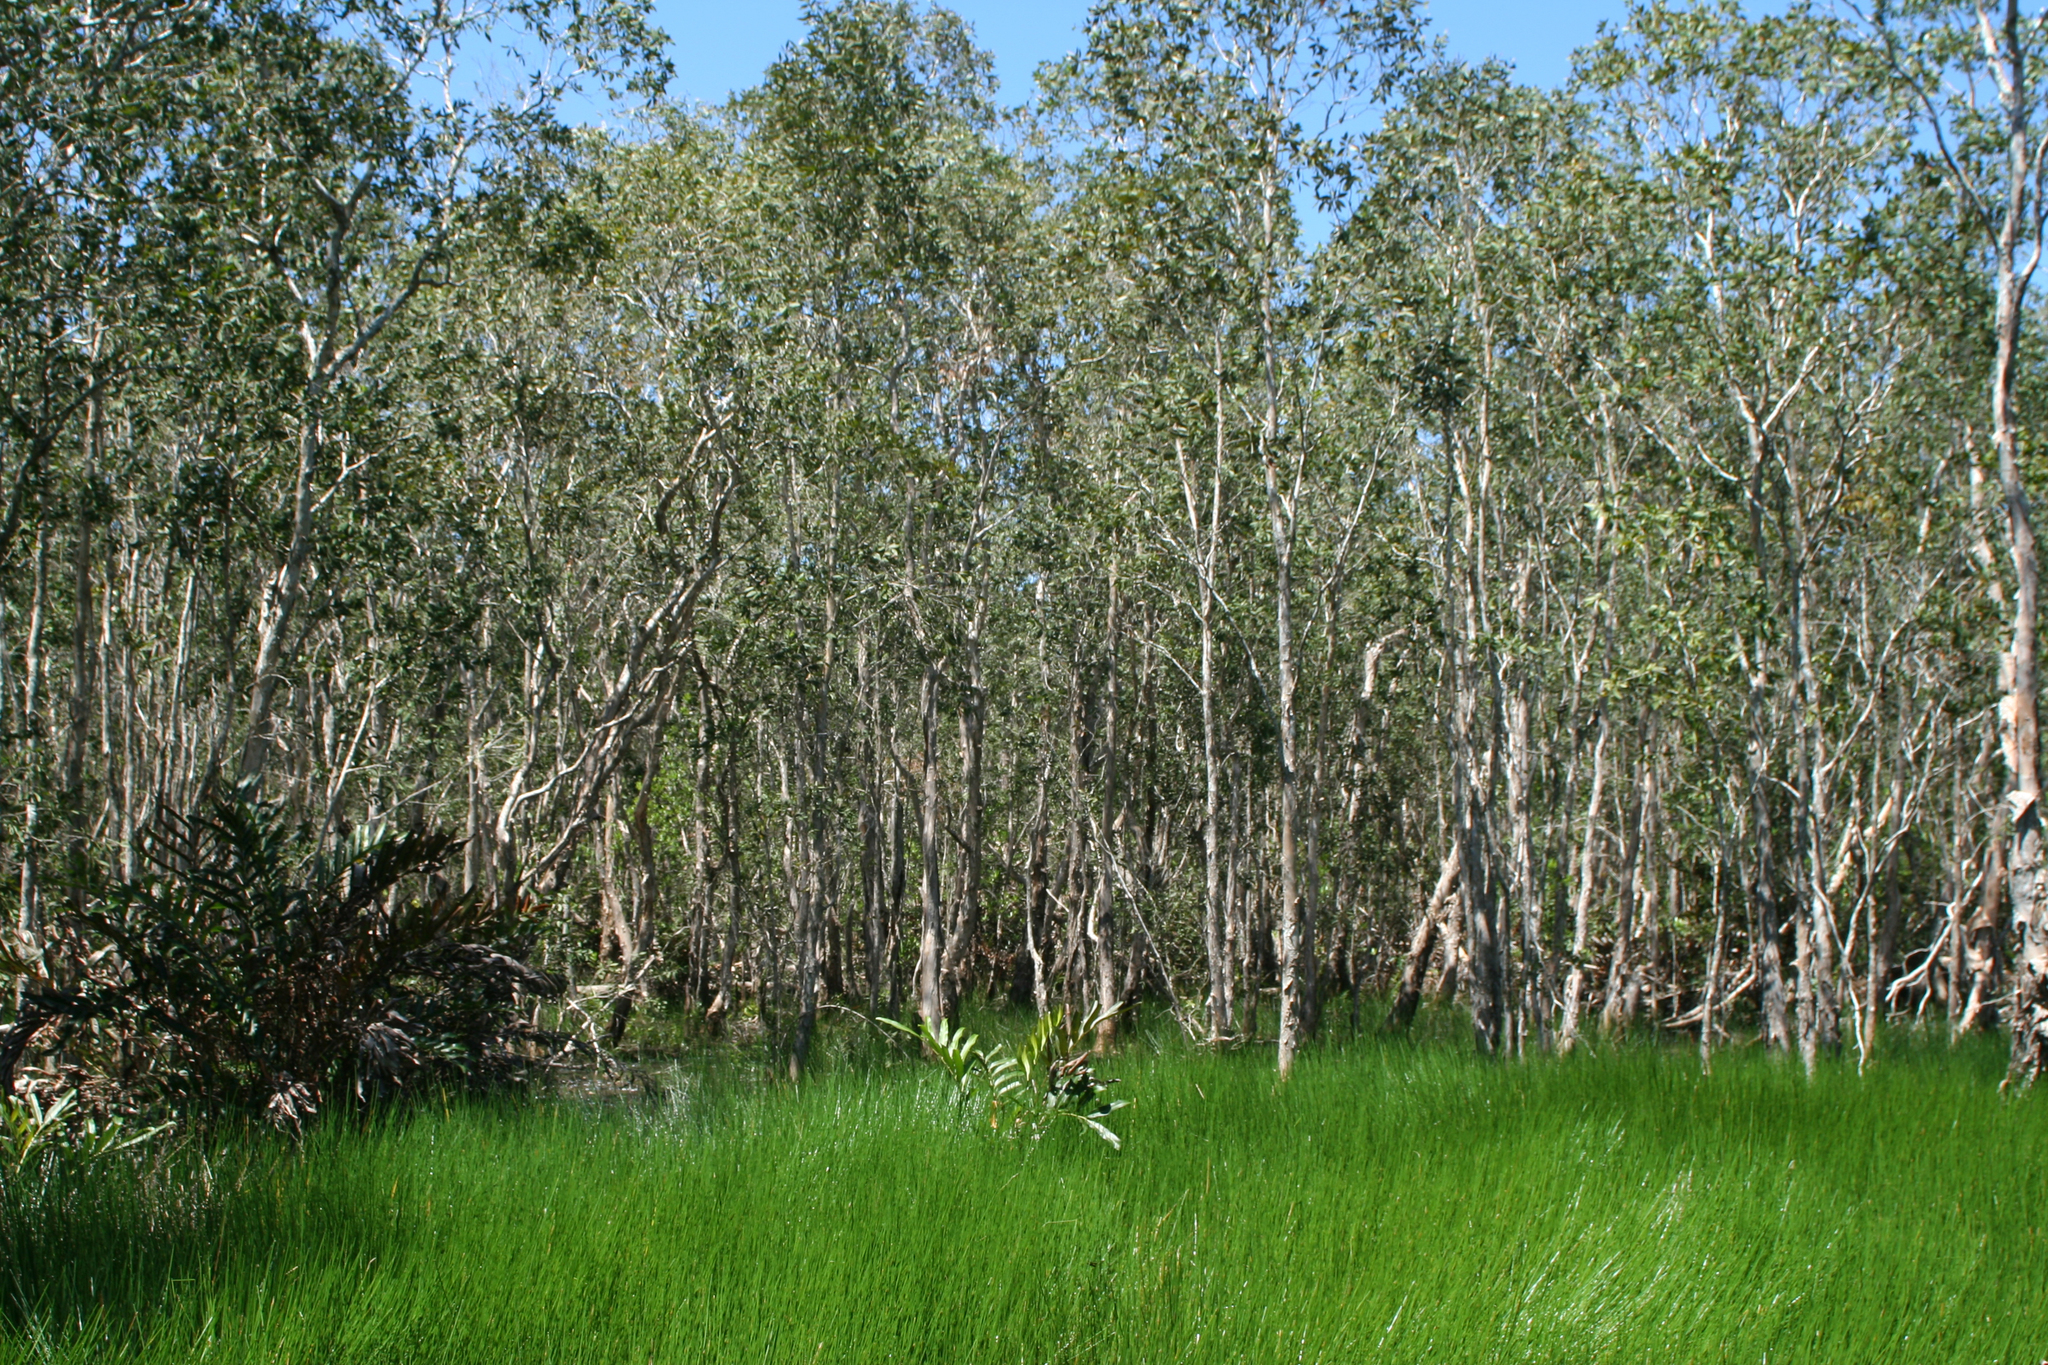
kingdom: Plantae
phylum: Tracheophyta
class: Magnoliopsida
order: Myrtales
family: Myrtaceae
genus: Melaleuca
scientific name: Melaleuca cajuputi
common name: Cajuput
